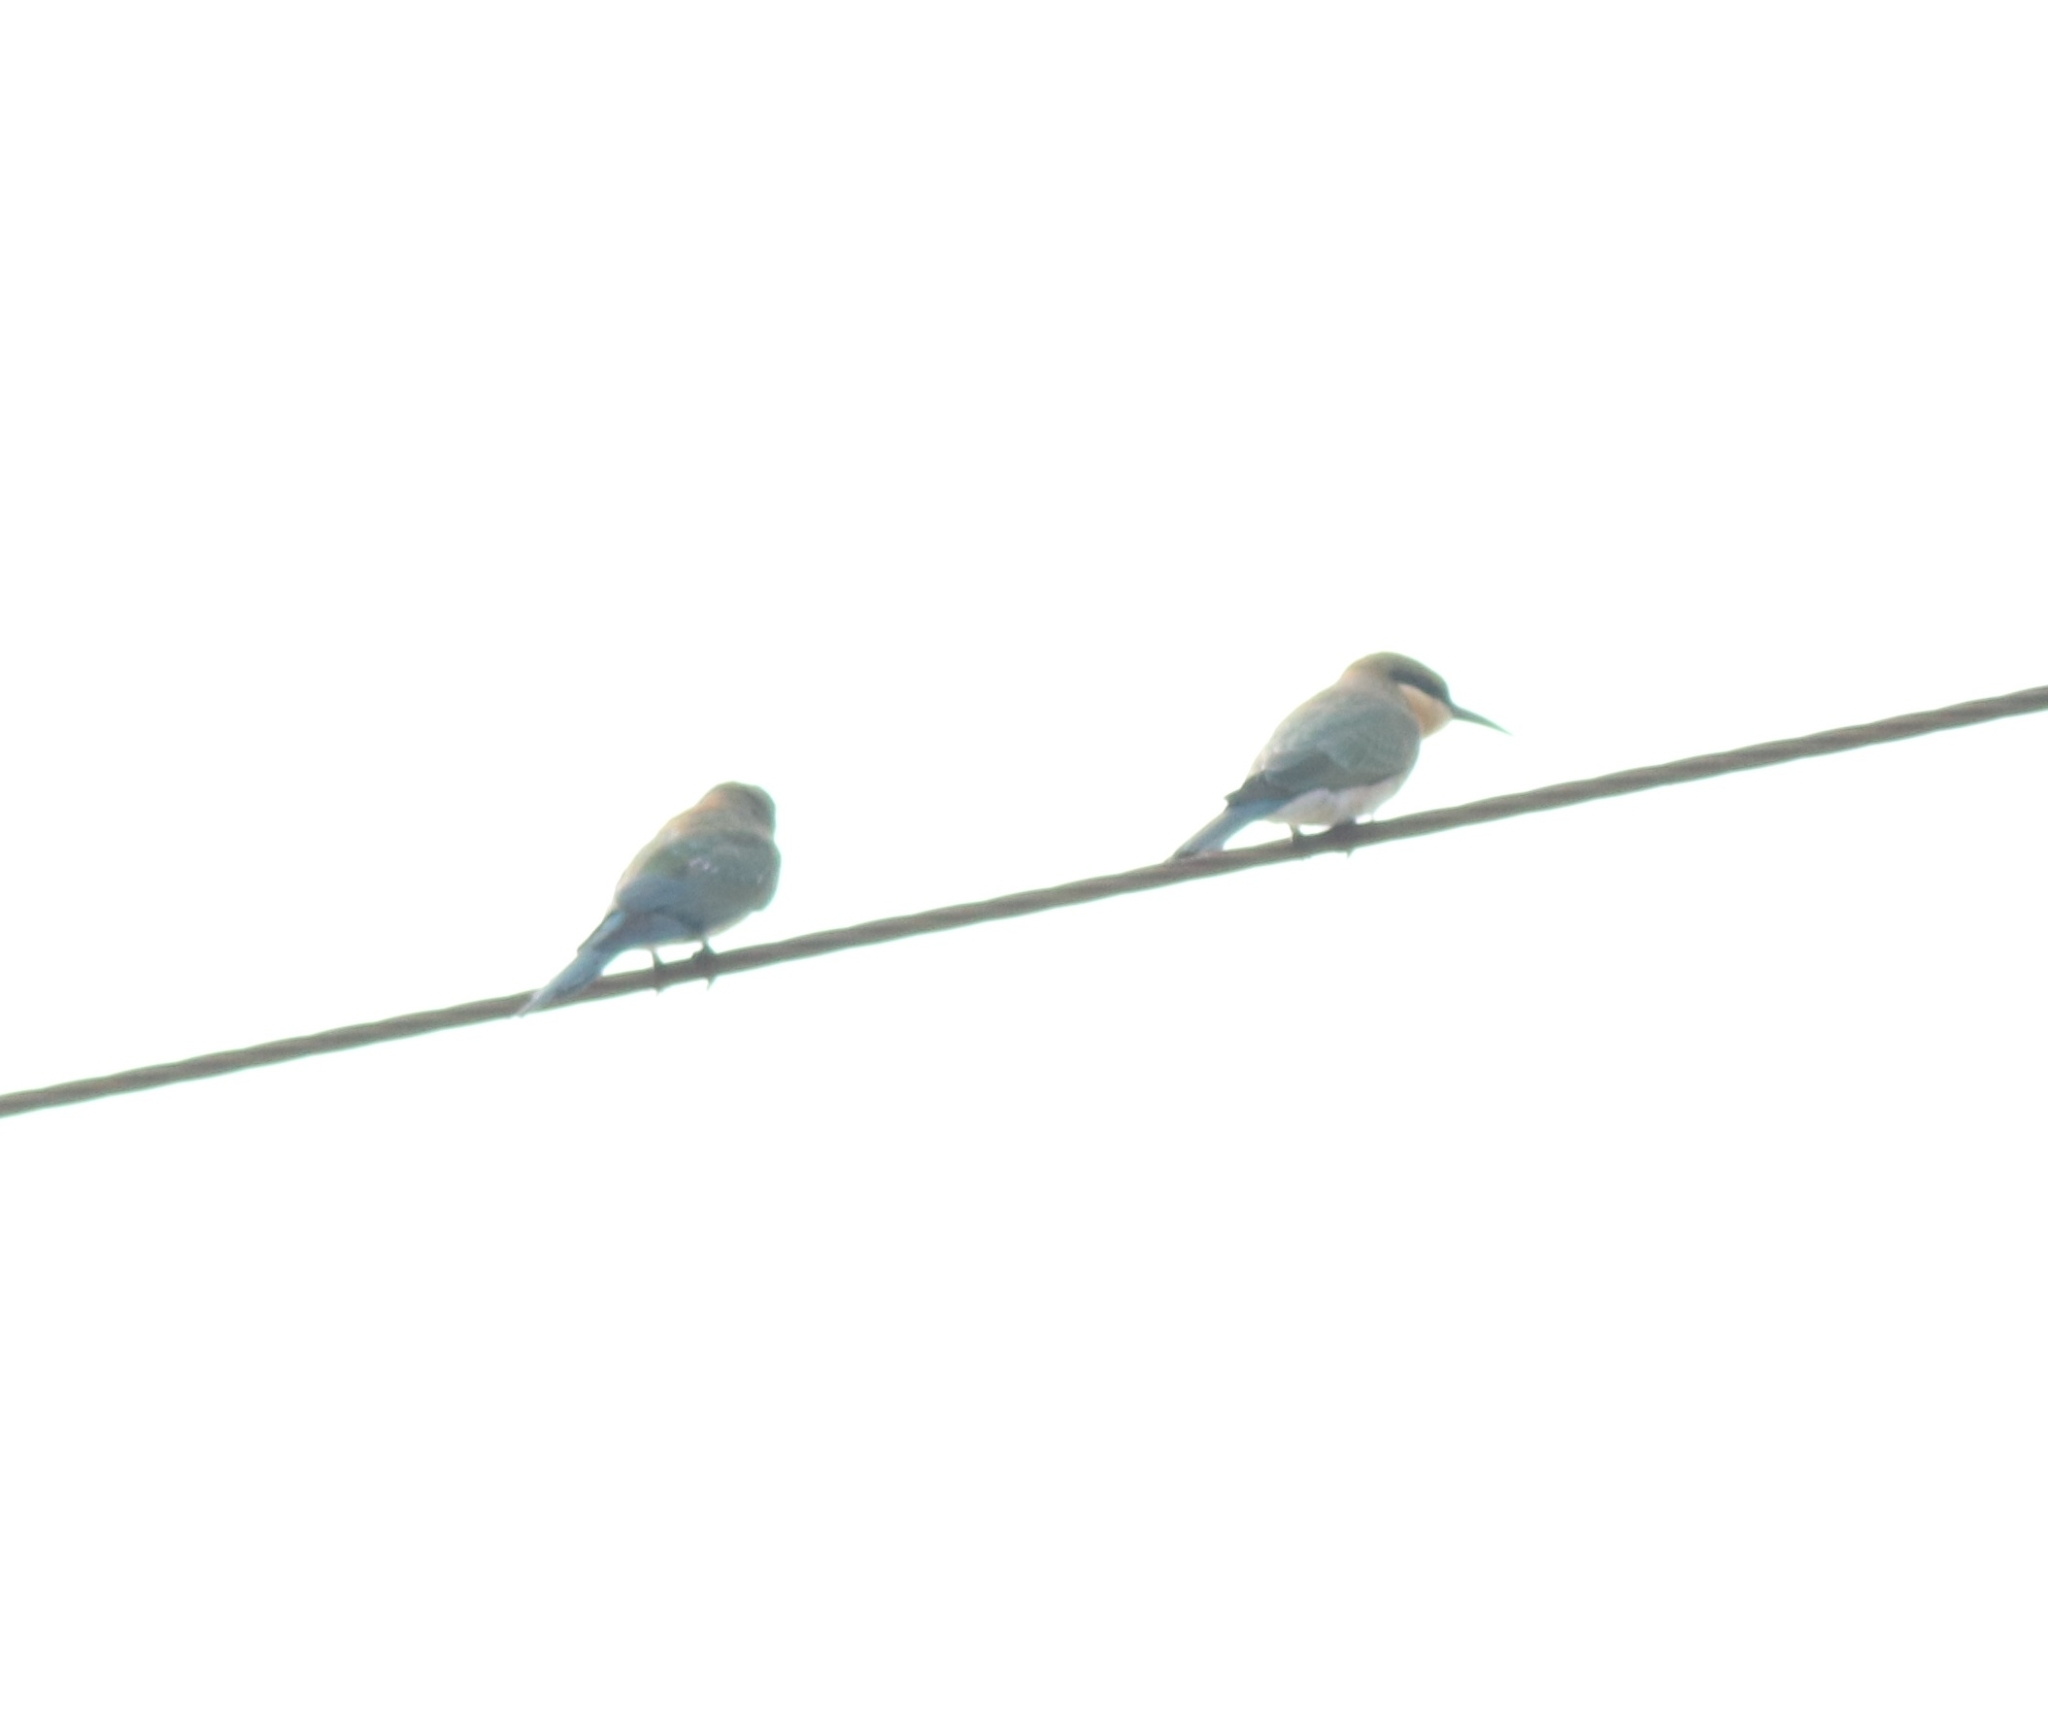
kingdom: Animalia
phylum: Chordata
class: Aves
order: Coraciiformes
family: Meropidae
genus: Merops
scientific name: Merops philippinus
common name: Blue-tailed bee-eater
